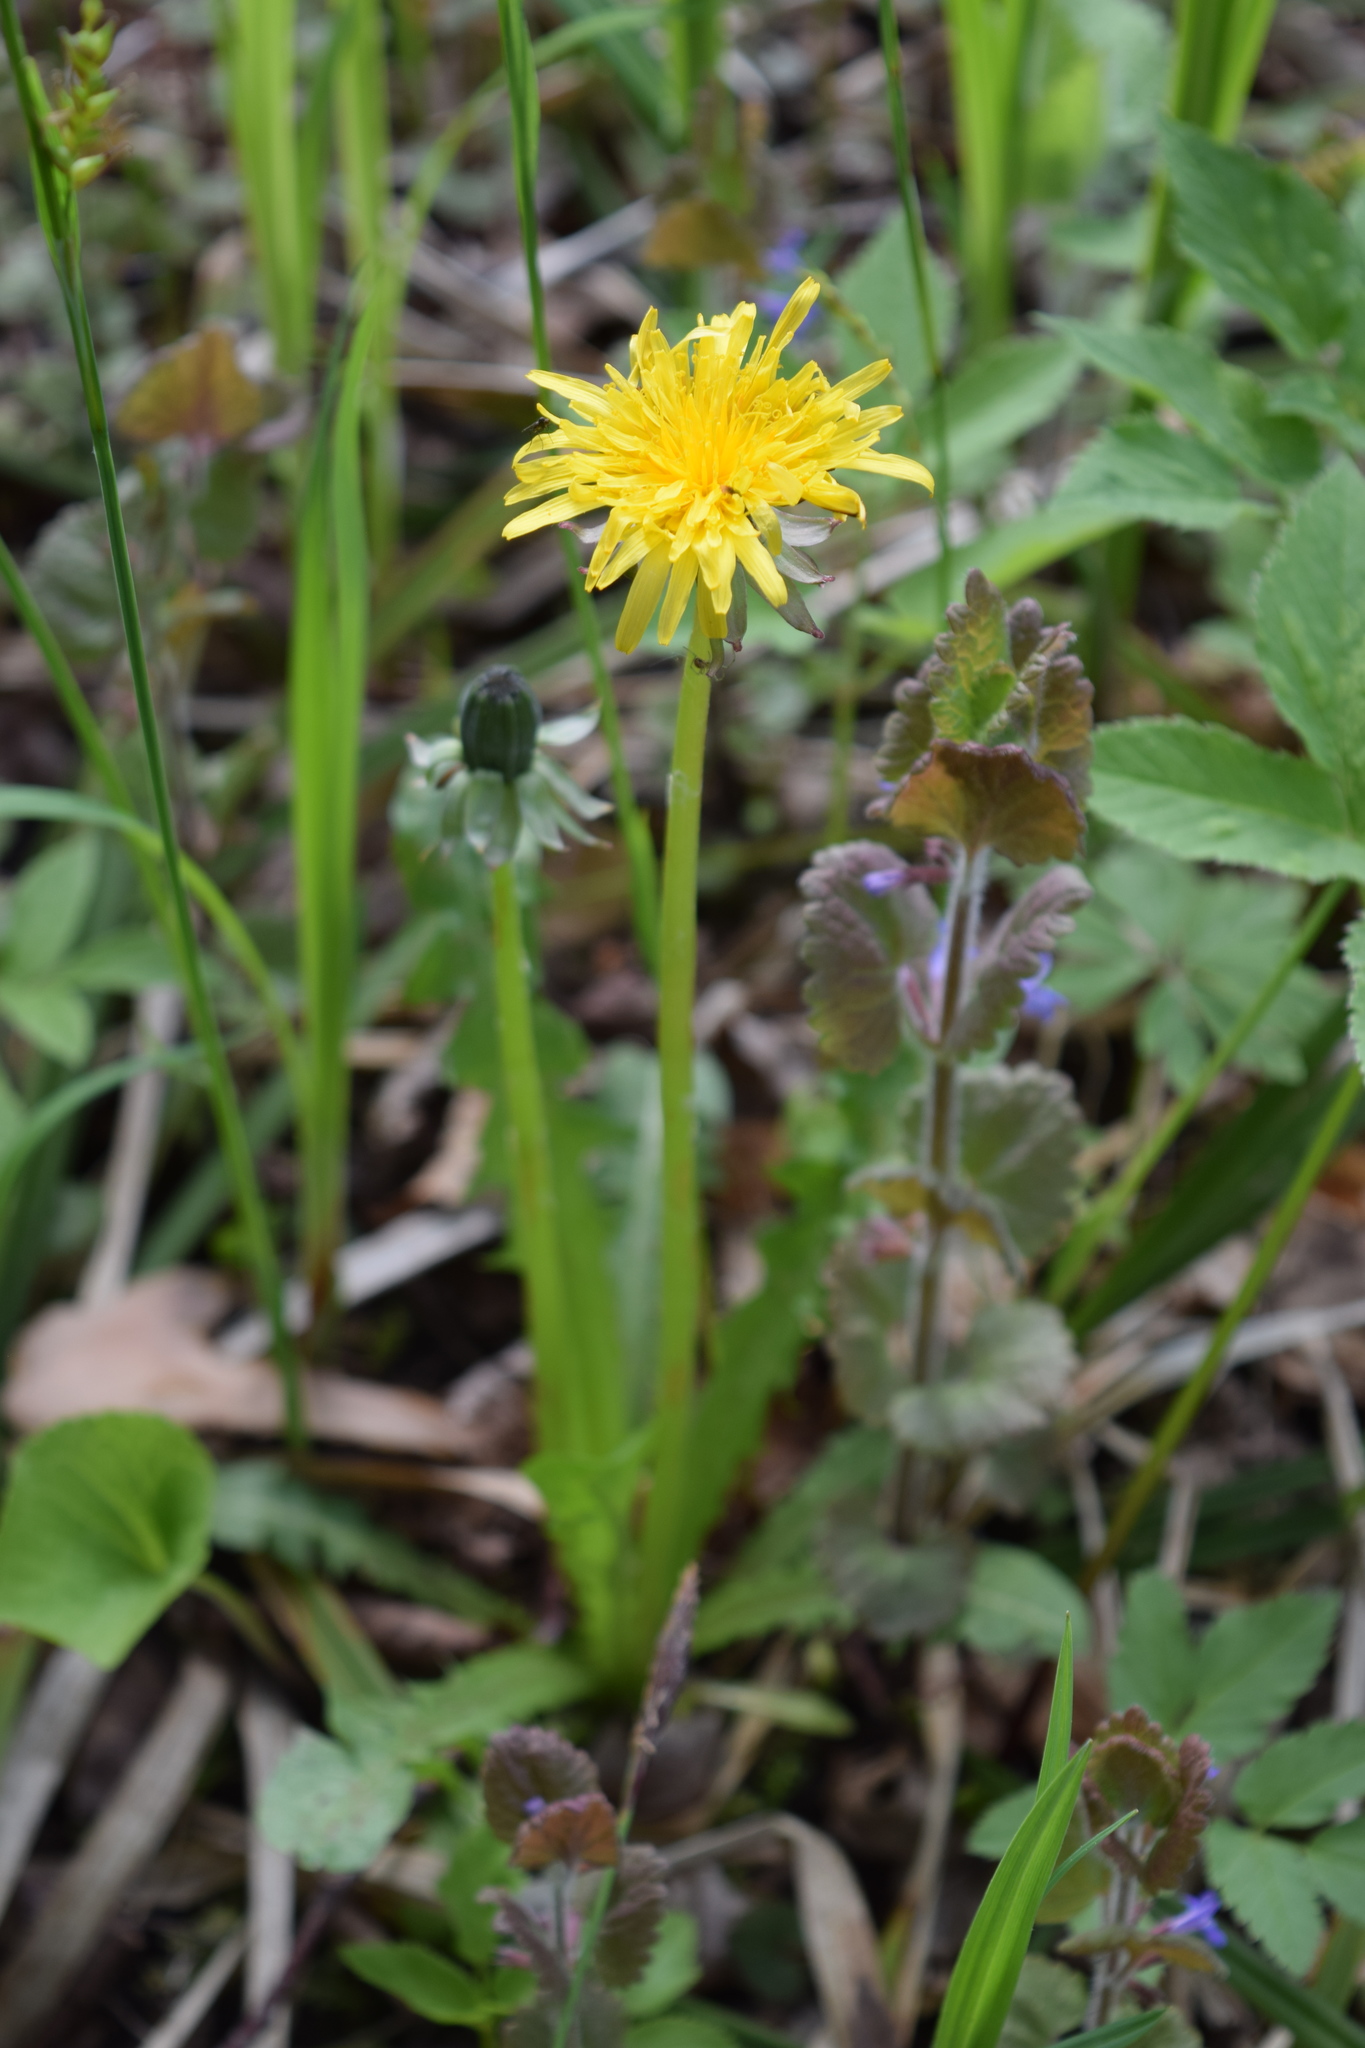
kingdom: Plantae
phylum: Tracheophyta
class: Magnoliopsida
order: Asterales
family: Asteraceae
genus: Taraxacum
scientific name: Taraxacum officinale
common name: Common dandelion
